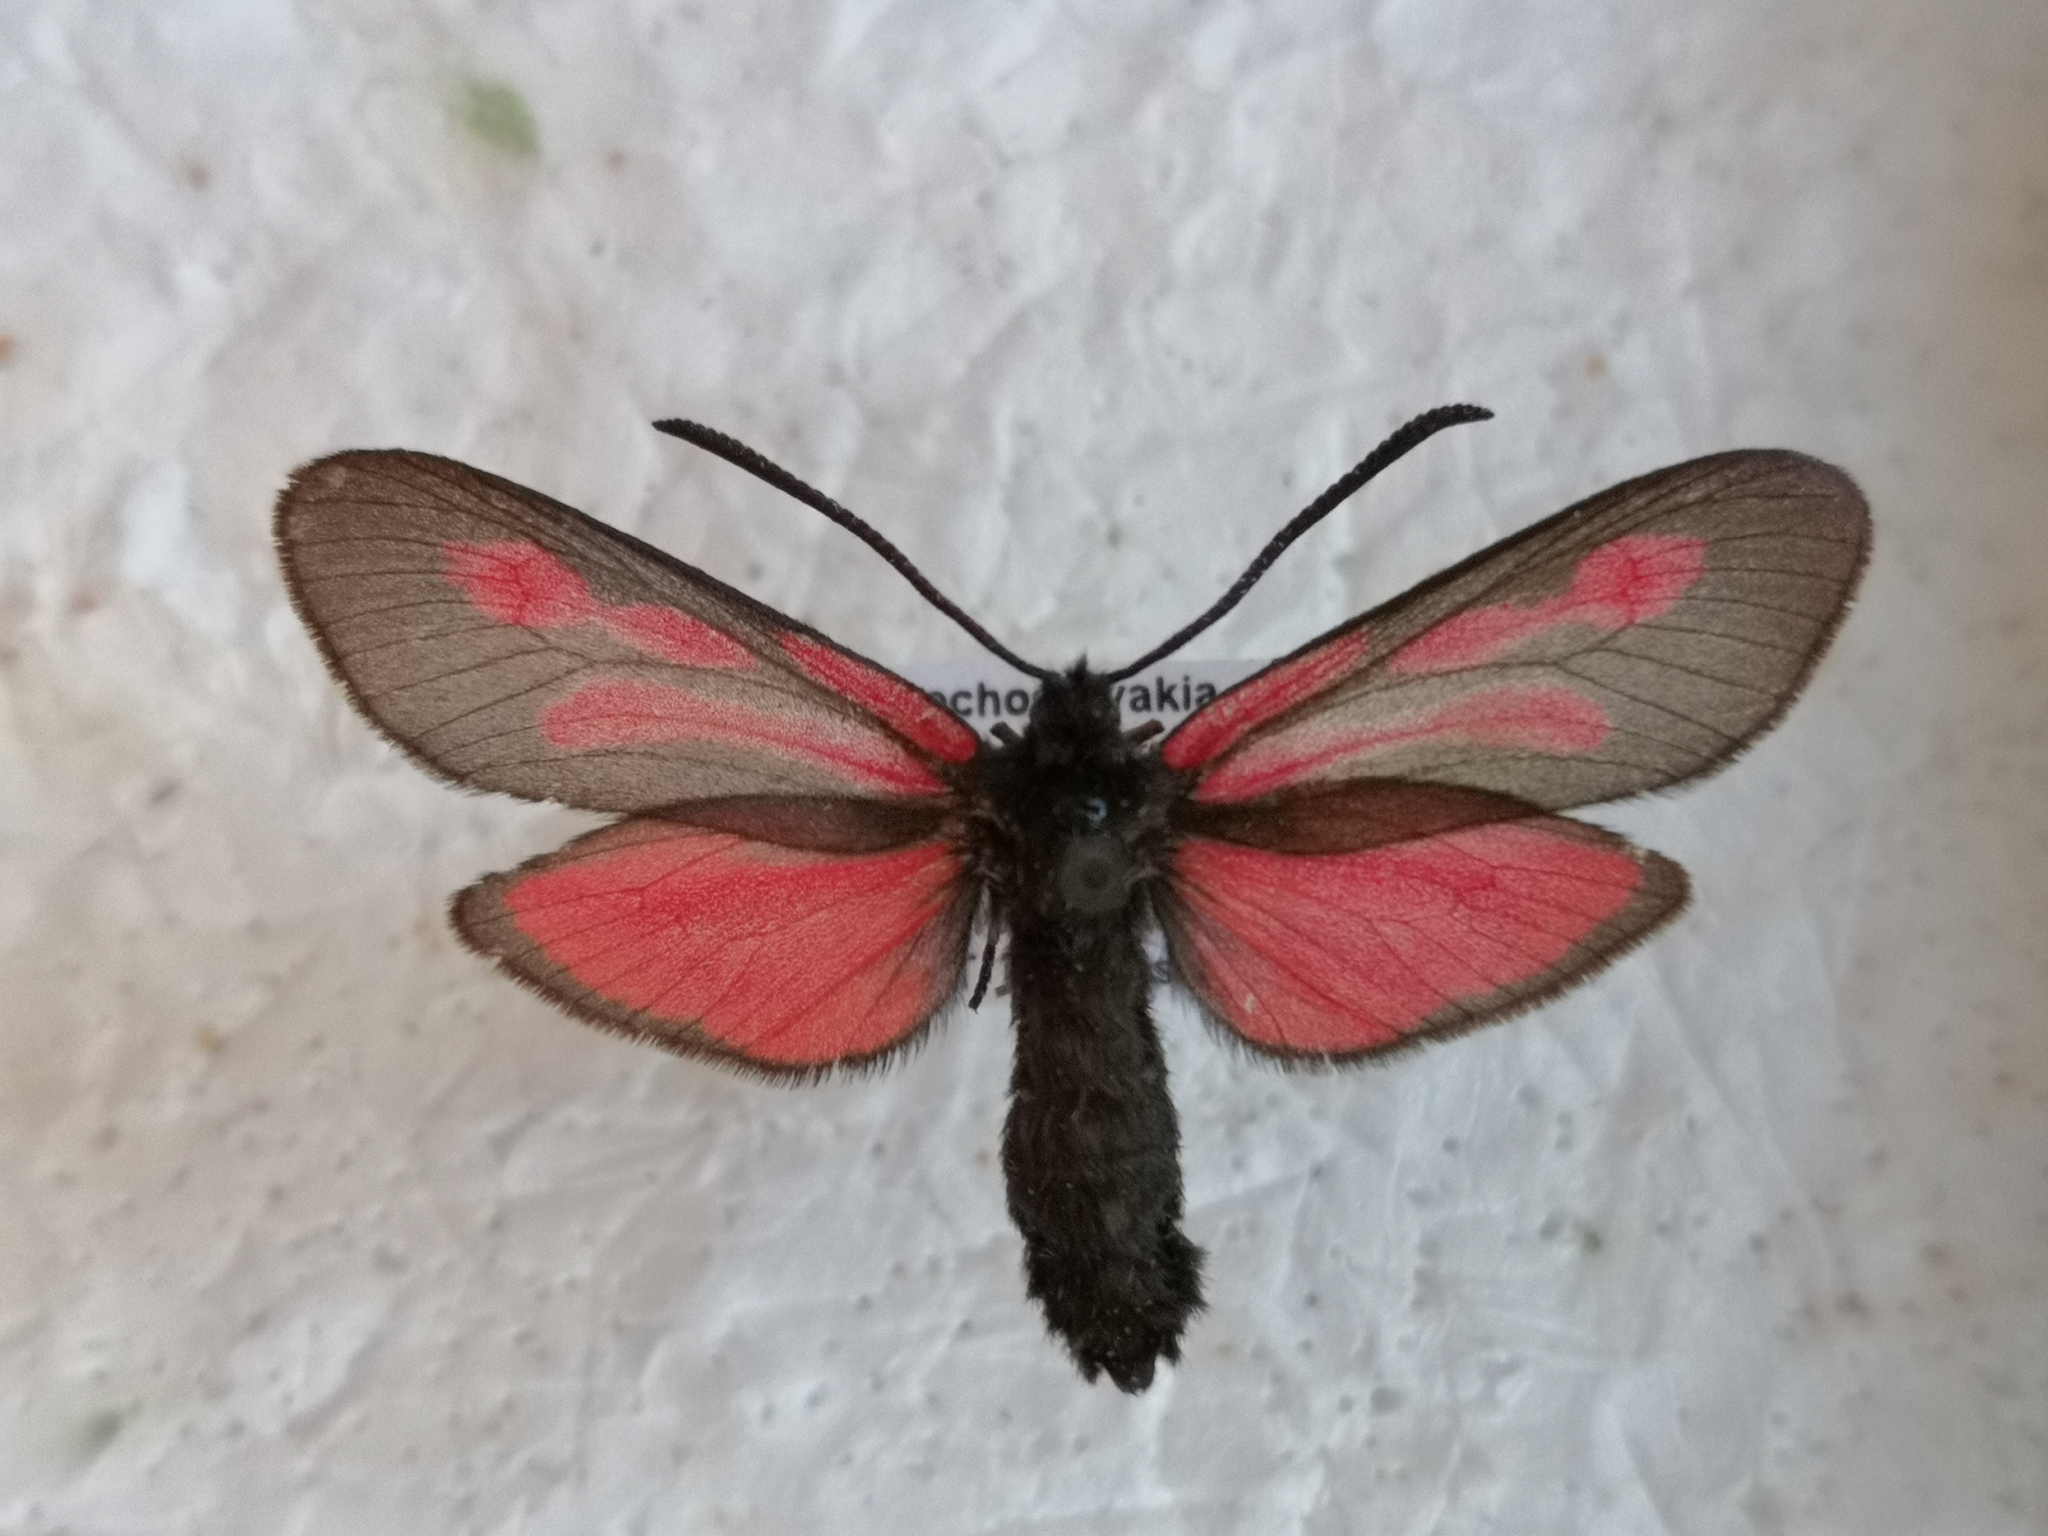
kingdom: Animalia
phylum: Arthropoda
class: Insecta
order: Lepidoptera
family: Zygaenidae
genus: Zygaena
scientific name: Zygaena osterodensis
